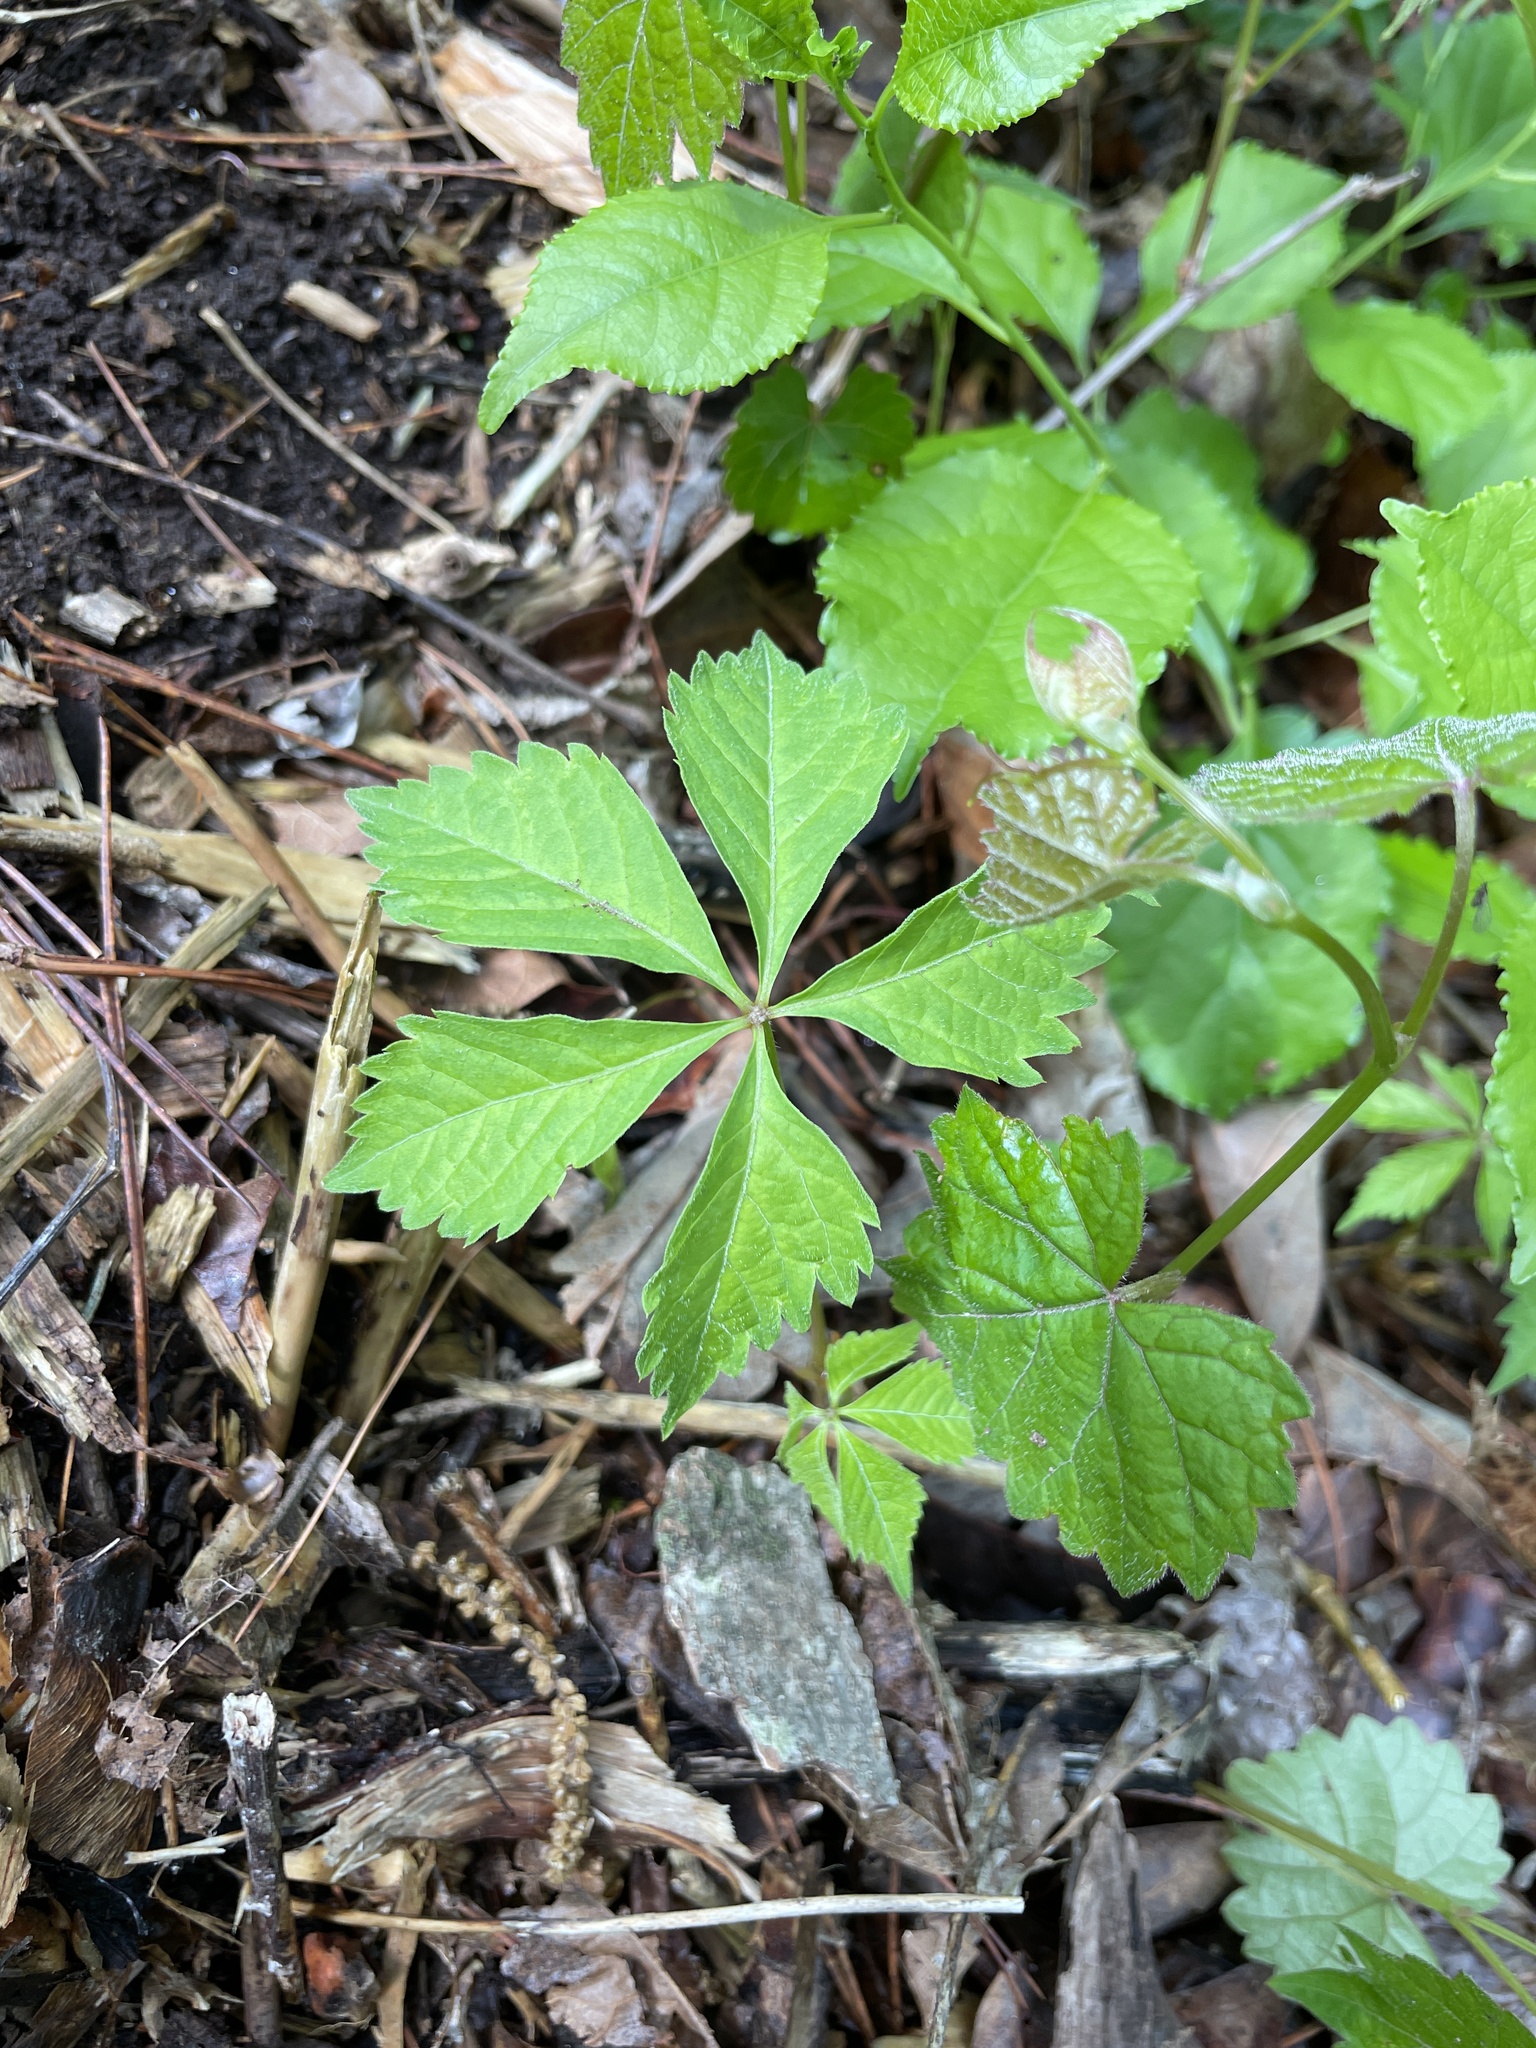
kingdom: Plantae
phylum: Tracheophyta
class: Magnoliopsida
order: Vitales
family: Vitaceae
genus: Parthenocissus
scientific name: Parthenocissus quinquefolia
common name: Virginia-creeper
